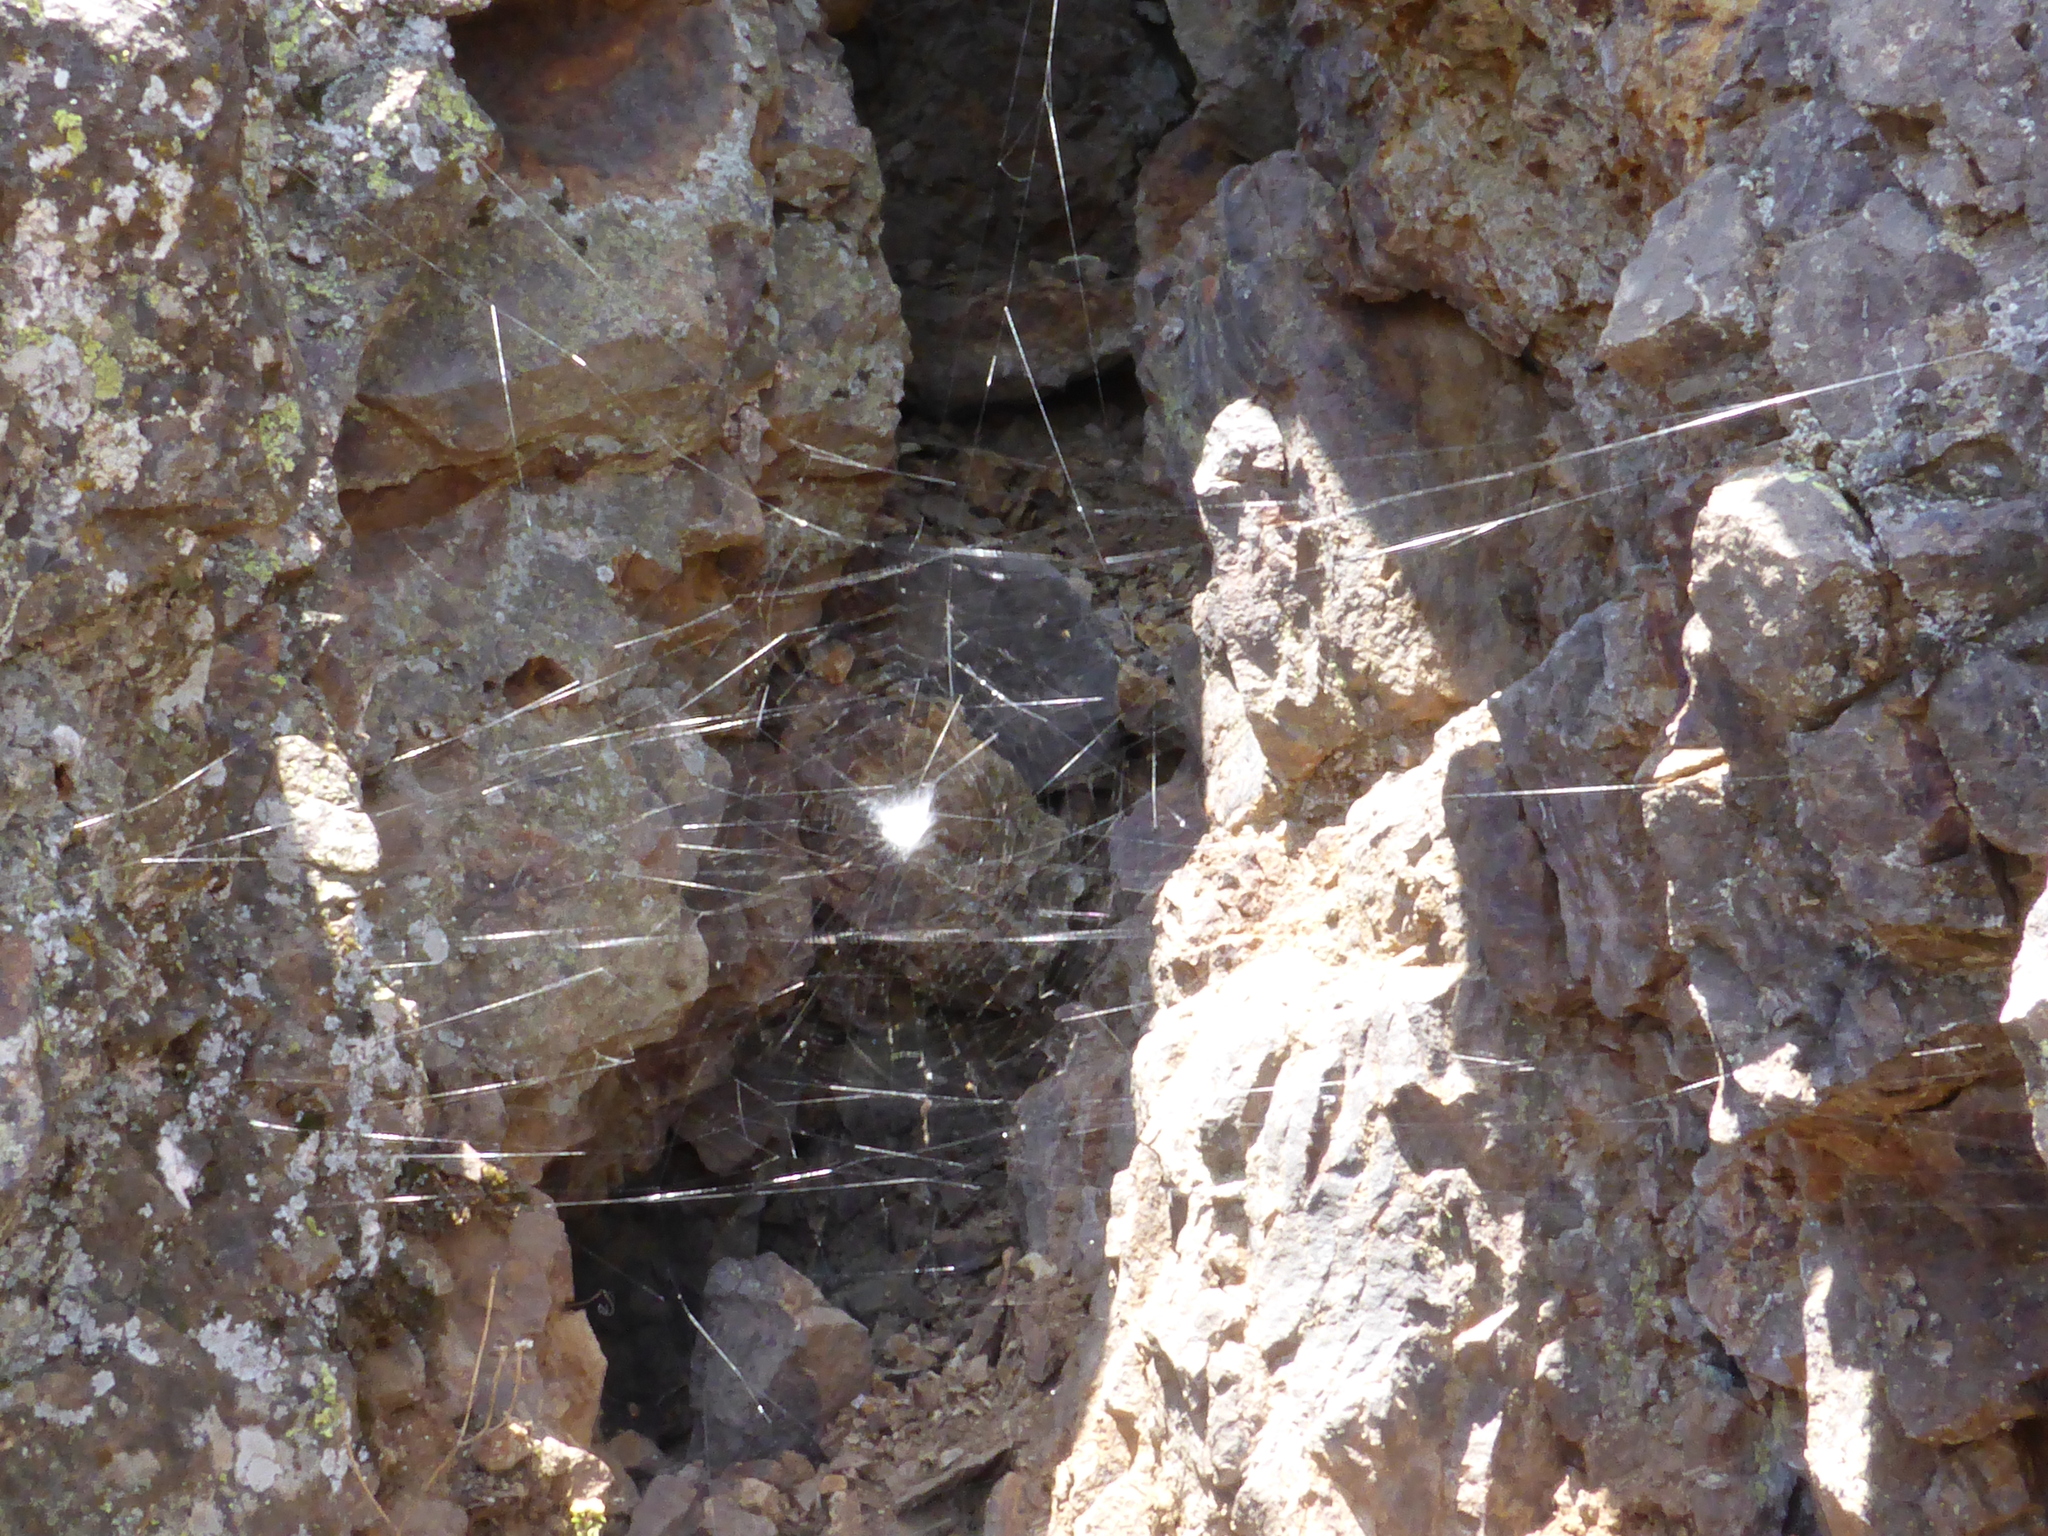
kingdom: Animalia
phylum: Arthropoda
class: Arachnida
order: Araneae
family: Araneidae
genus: Aculepeira
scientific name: Aculepeira ceropegia
